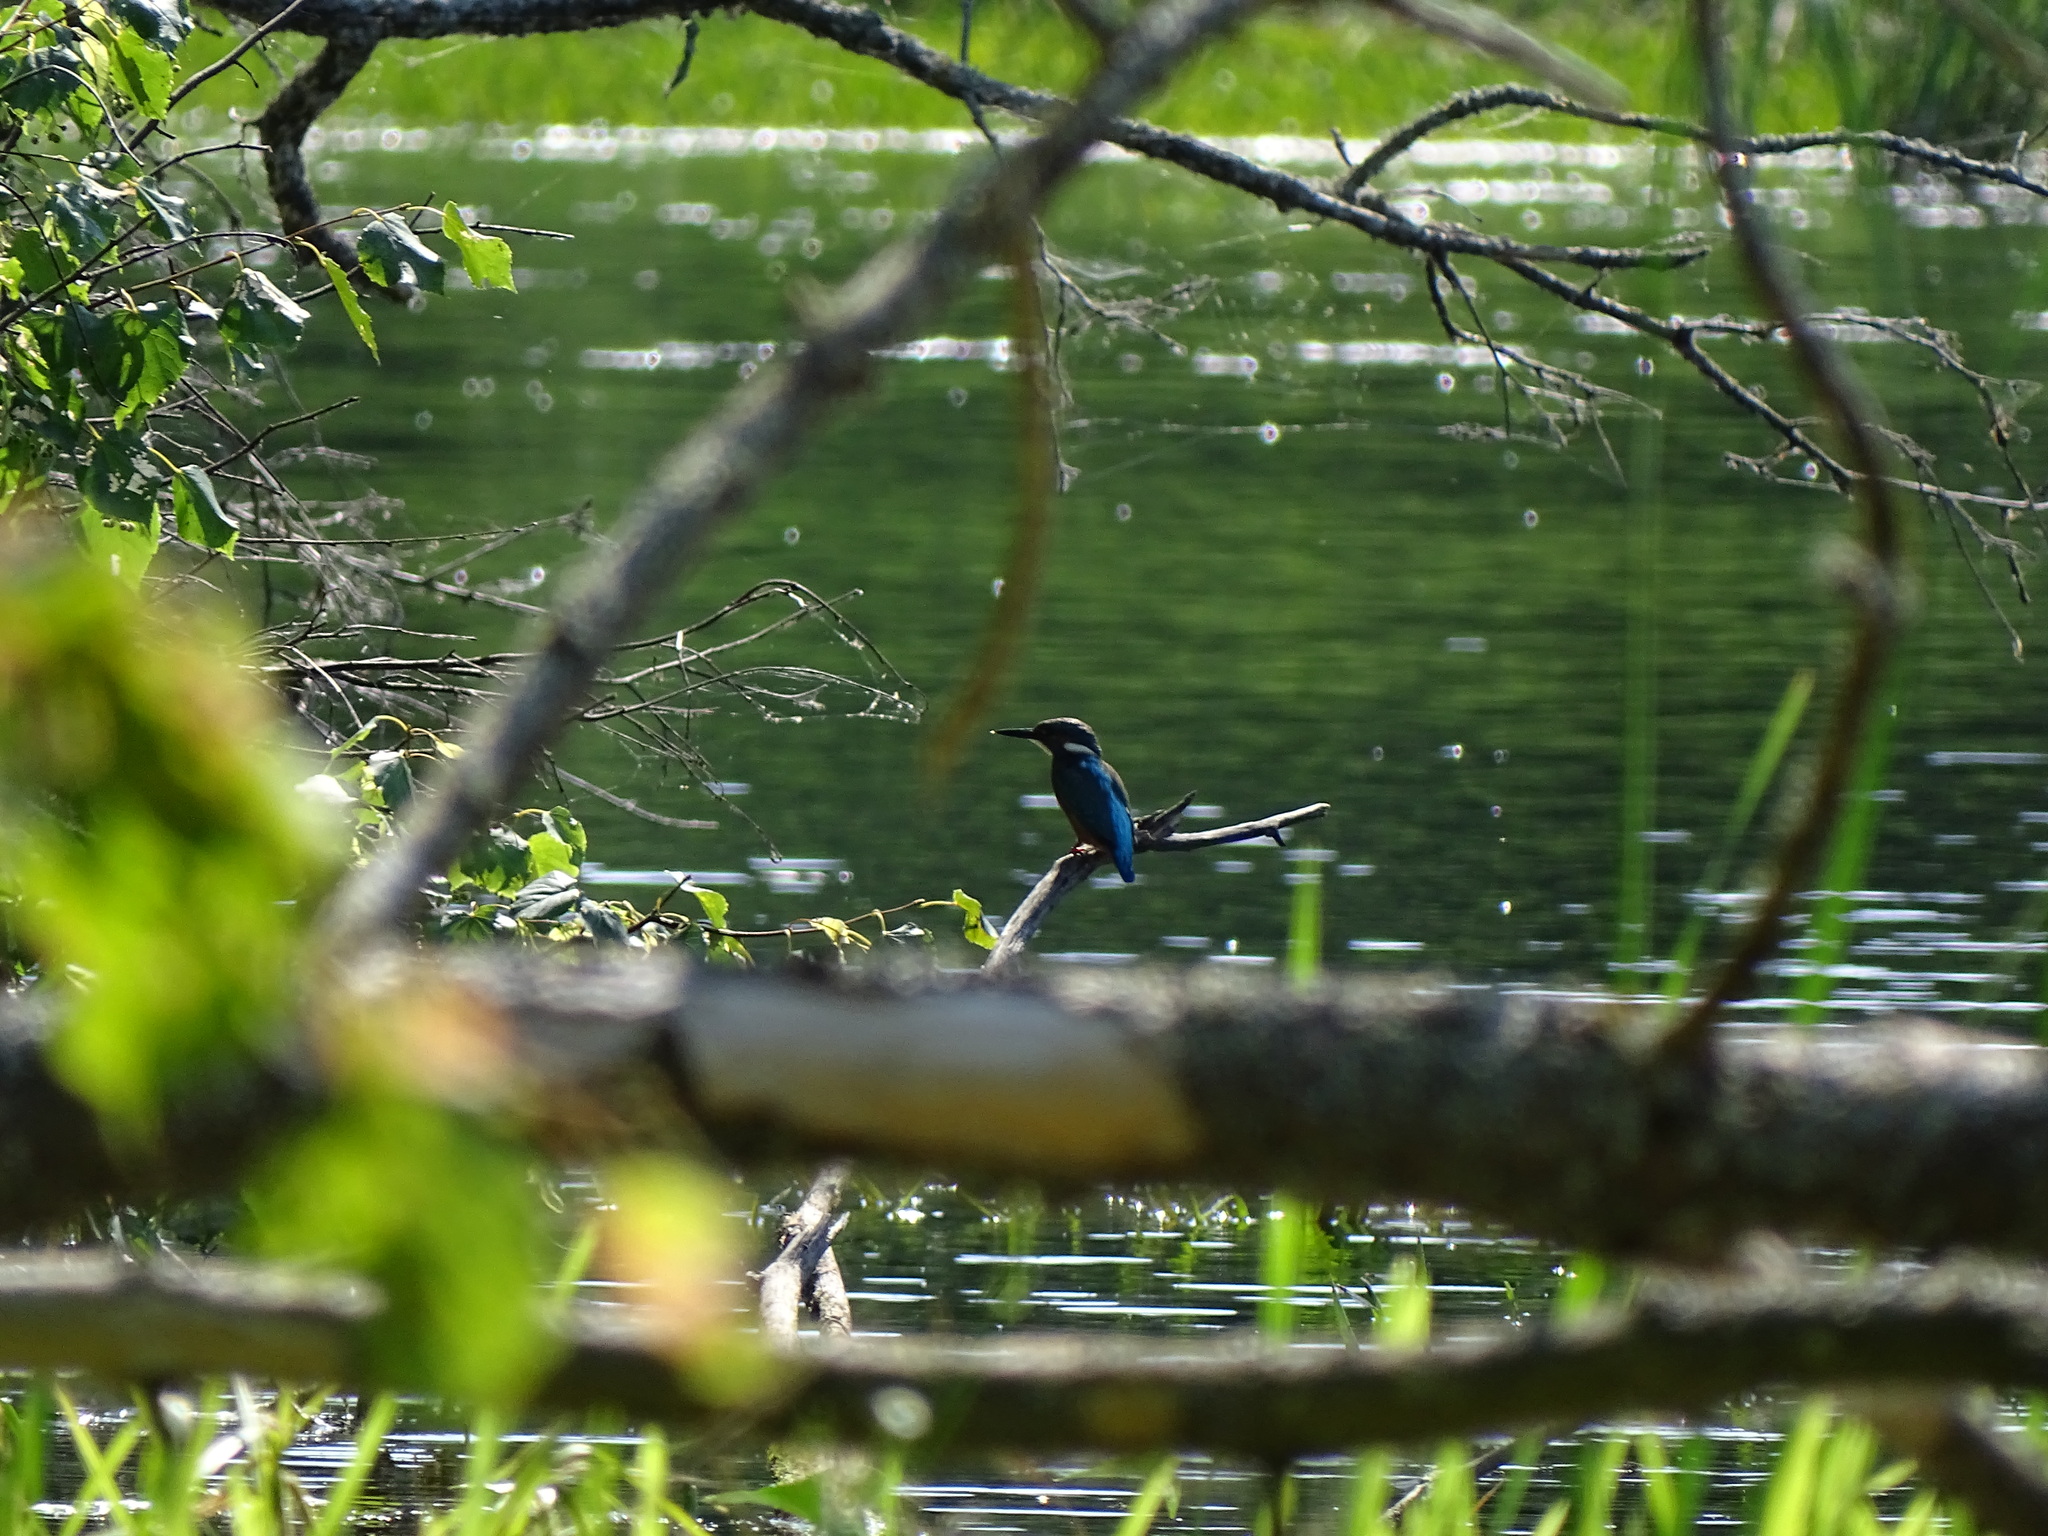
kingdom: Animalia
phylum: Chordata
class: Aves
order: Coraciiformes
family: Alcedinidae
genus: Alcedo
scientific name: Alcedo atthis
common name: Common kingfisher
